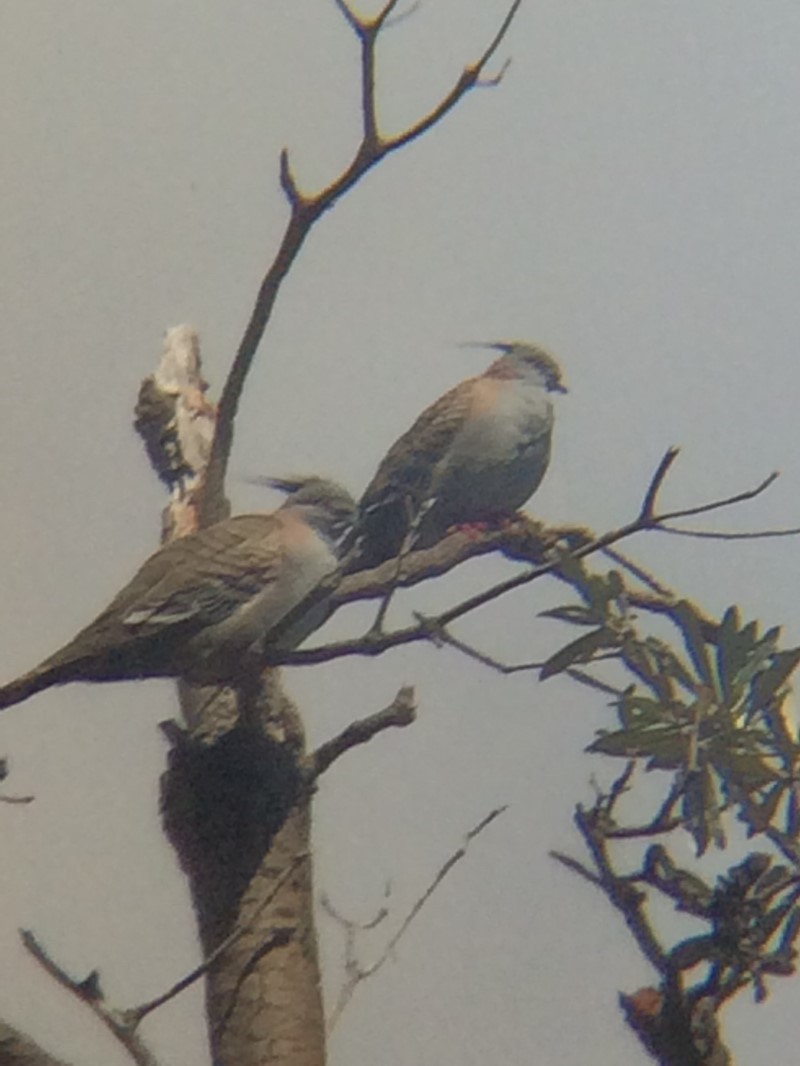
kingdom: Animalia
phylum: Chordata
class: Aves
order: Columbiformes
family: Columbidae
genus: Ocyphaps
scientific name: Ocyphaps lophotes
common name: Crested pigeon
